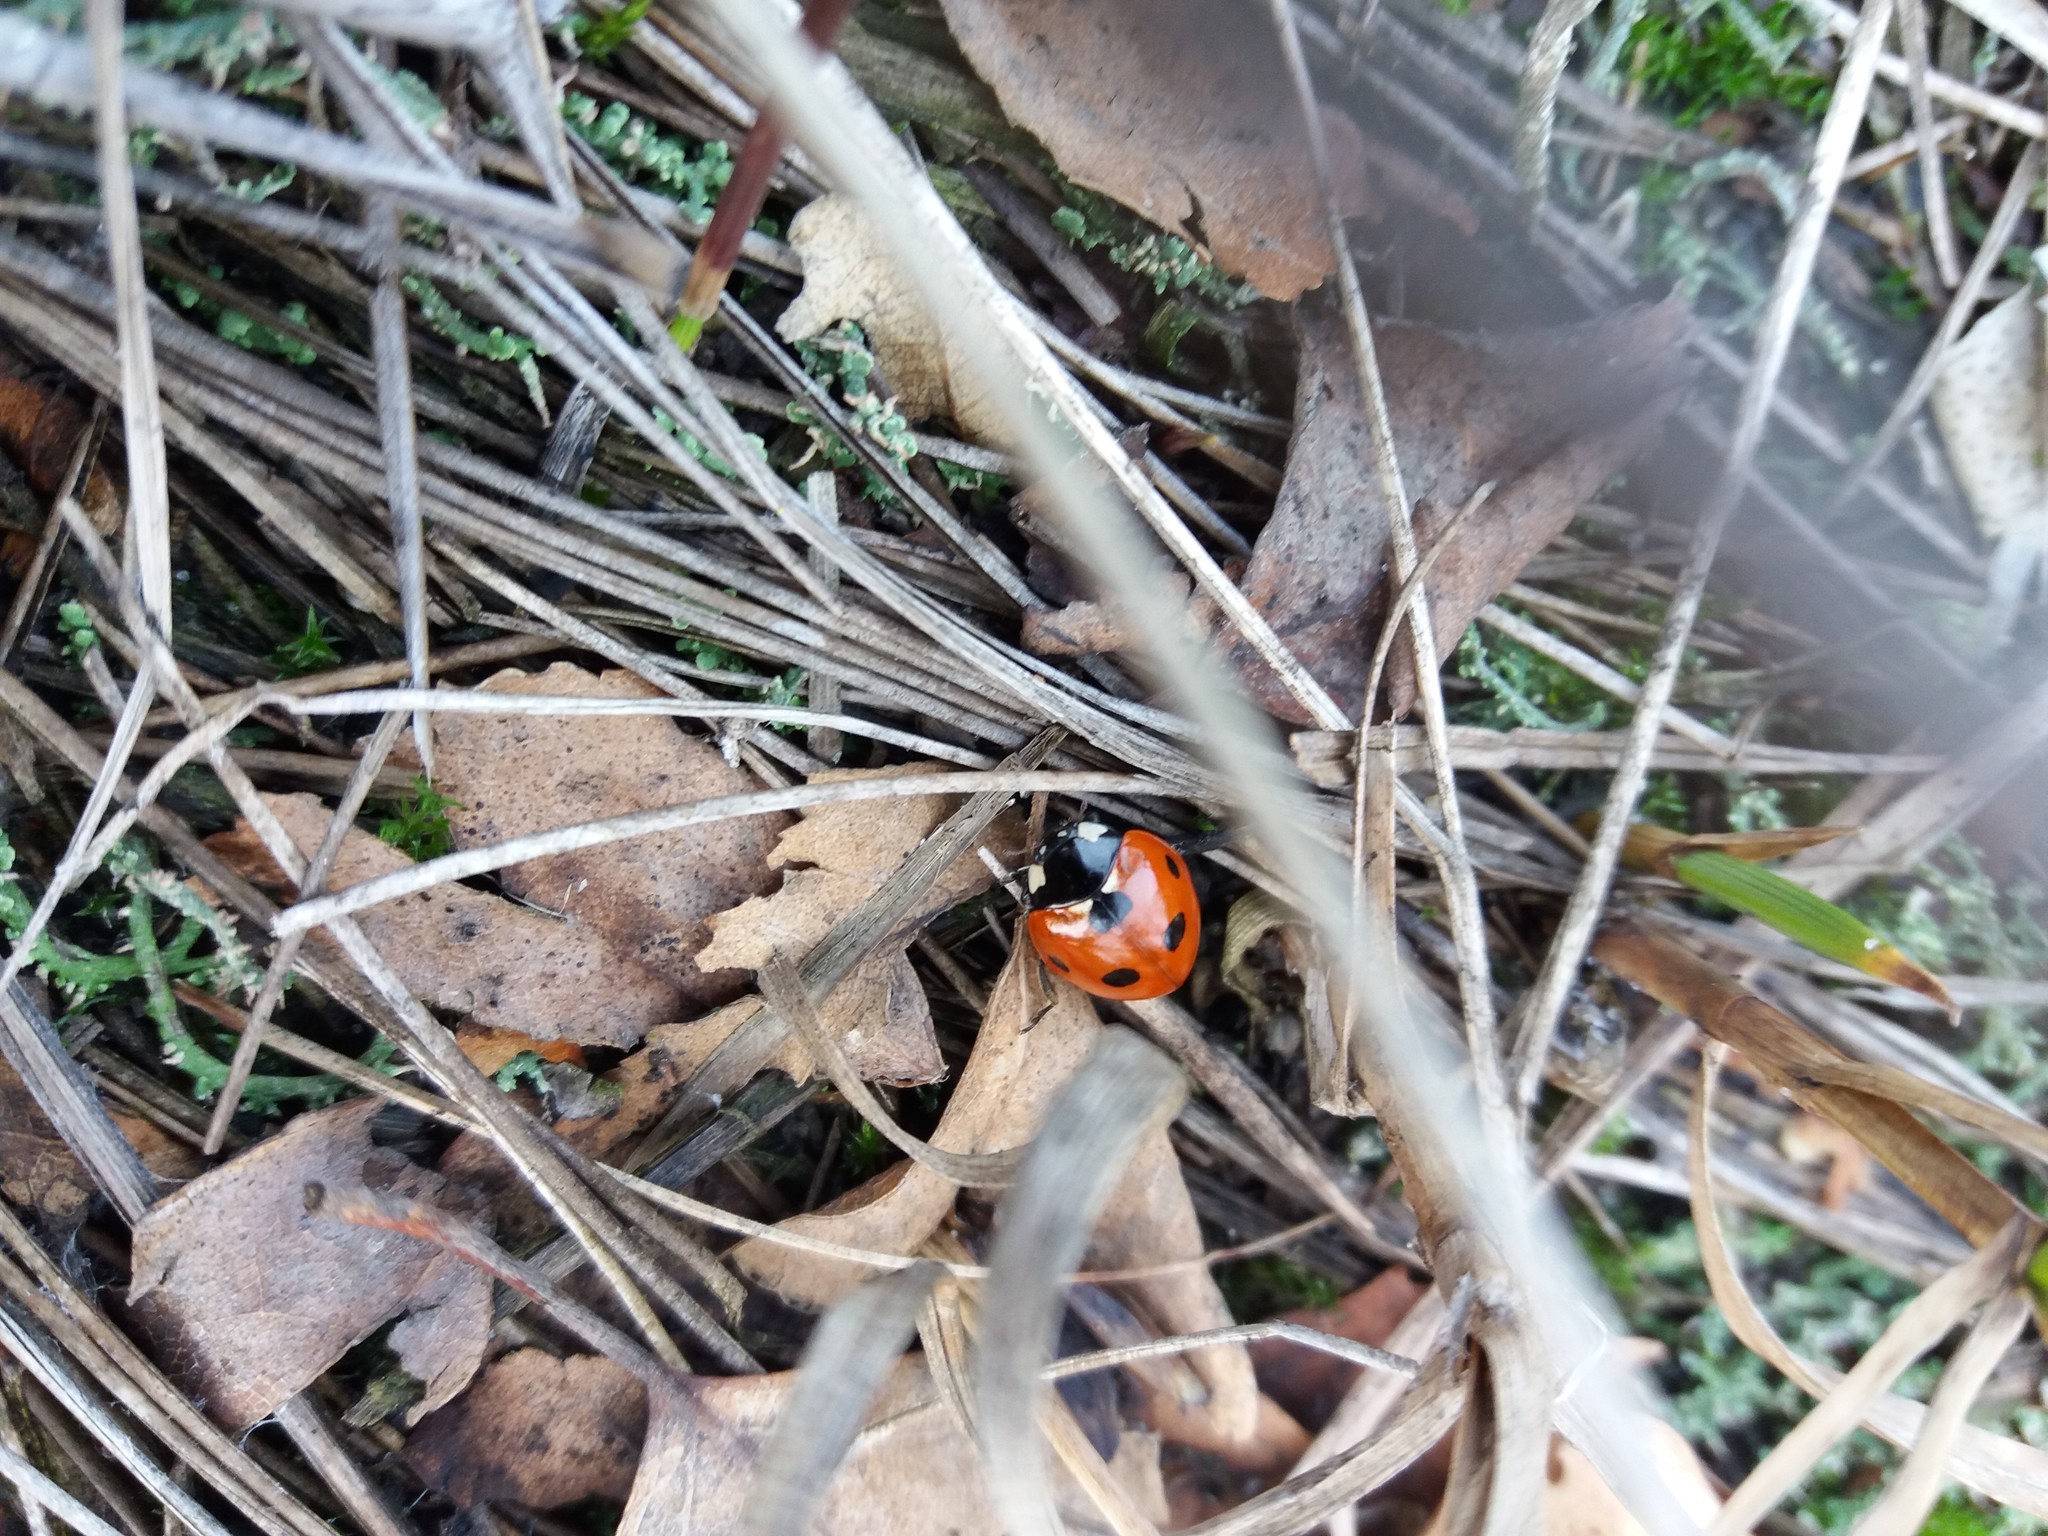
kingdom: Animalia
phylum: Arthropoda
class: Insecta
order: Coleoptera
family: Coccinellidae
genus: Coccinella
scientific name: Coccinella septempunctata
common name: Sevenspotted lady beetle
